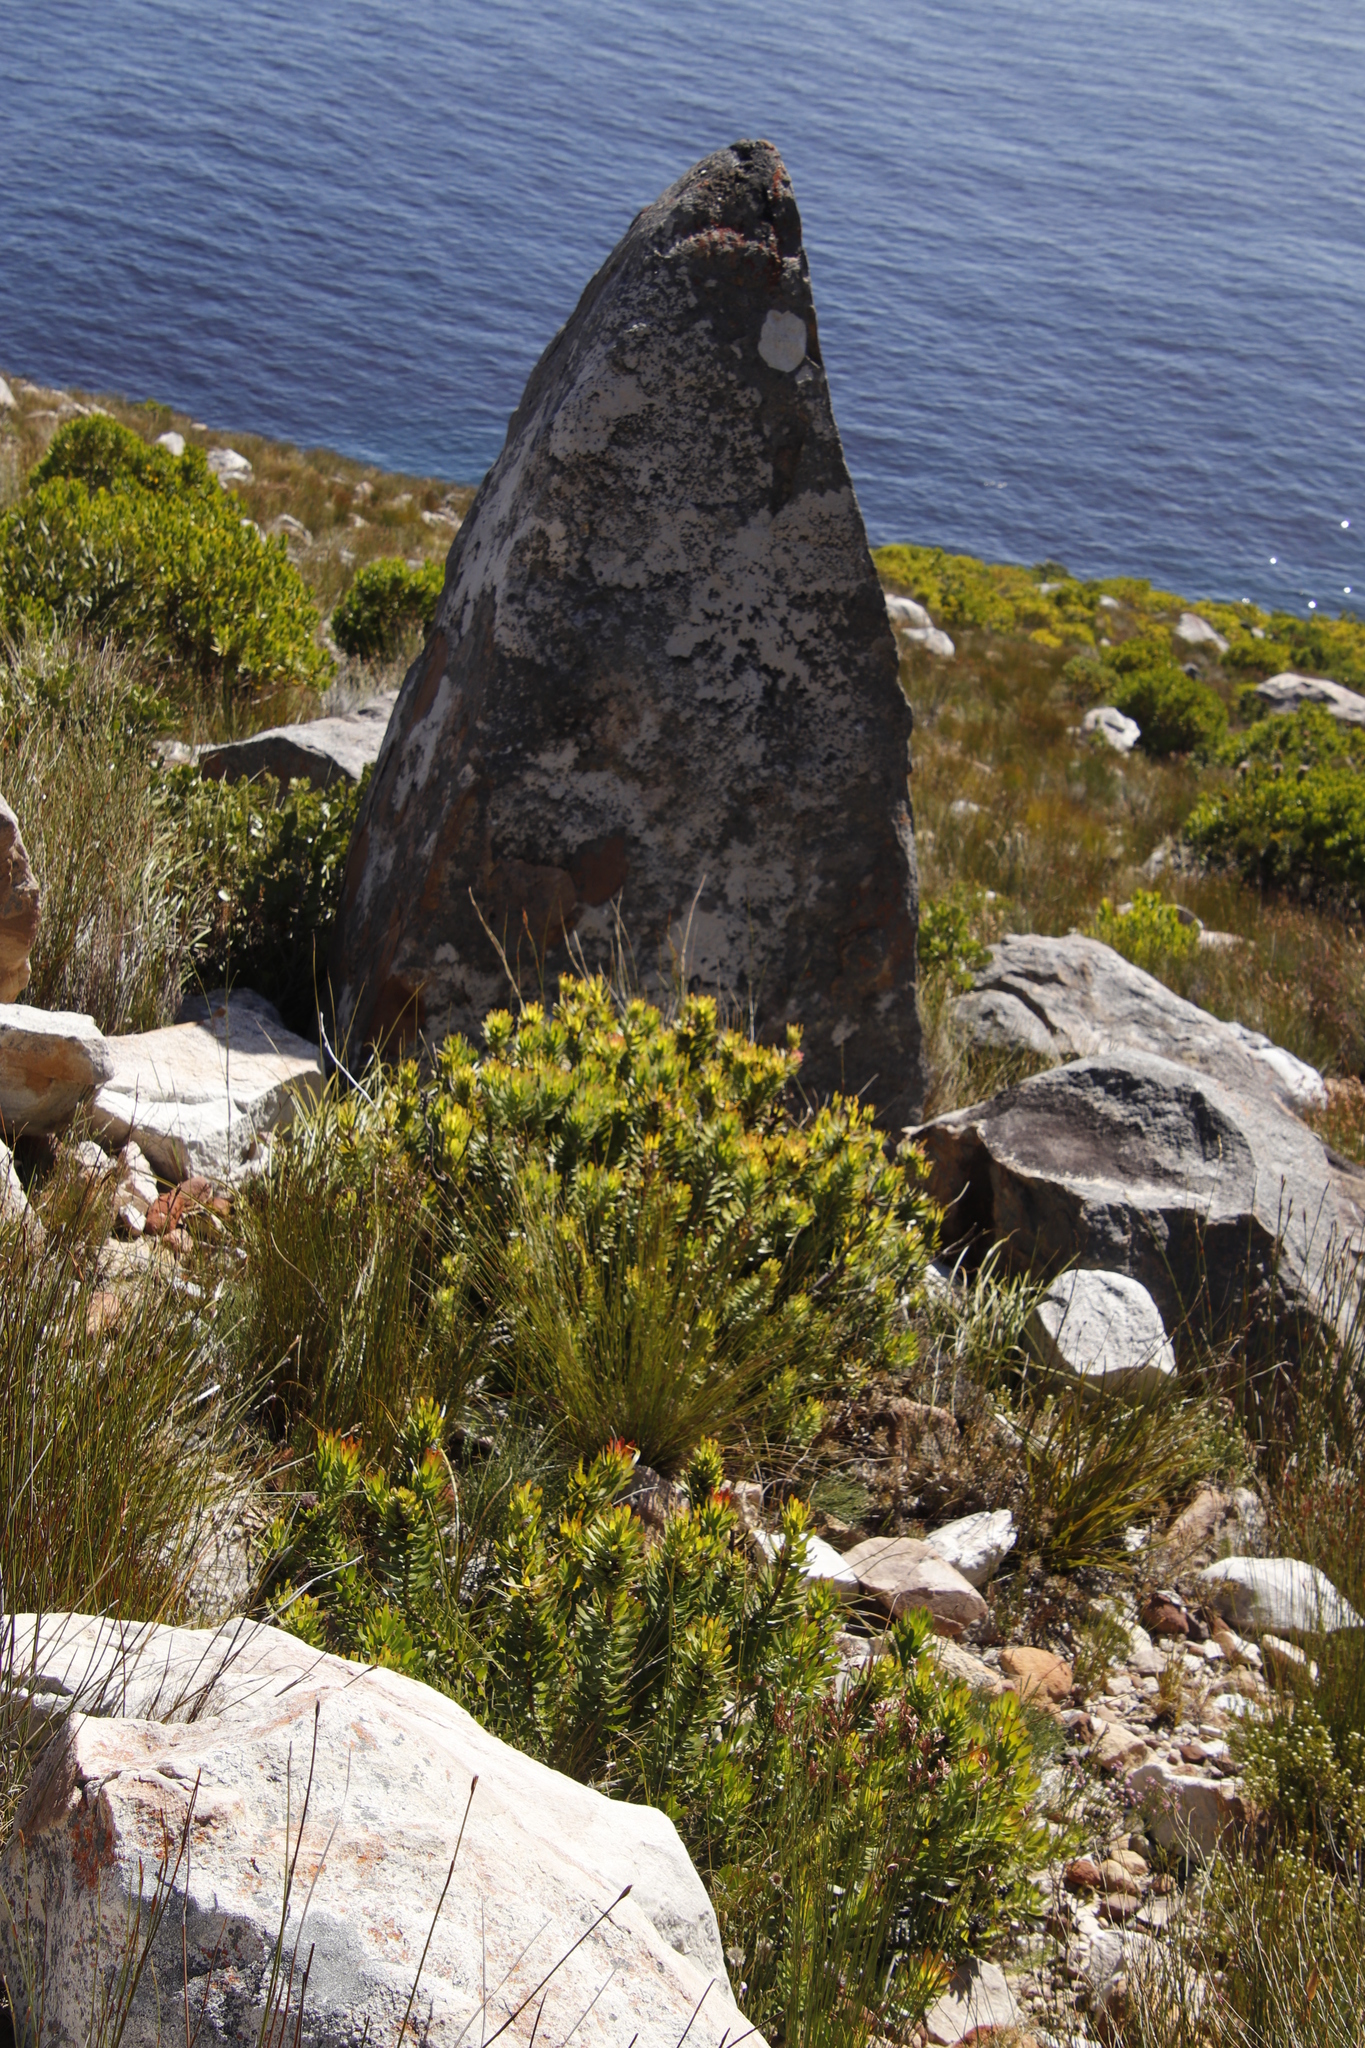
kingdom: Plantae
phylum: Tracheophyta
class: Magnoliopsida
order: Proteales
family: Proteaceae
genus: Mimetes
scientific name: Mimetes cucullatus
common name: Common pagoda
